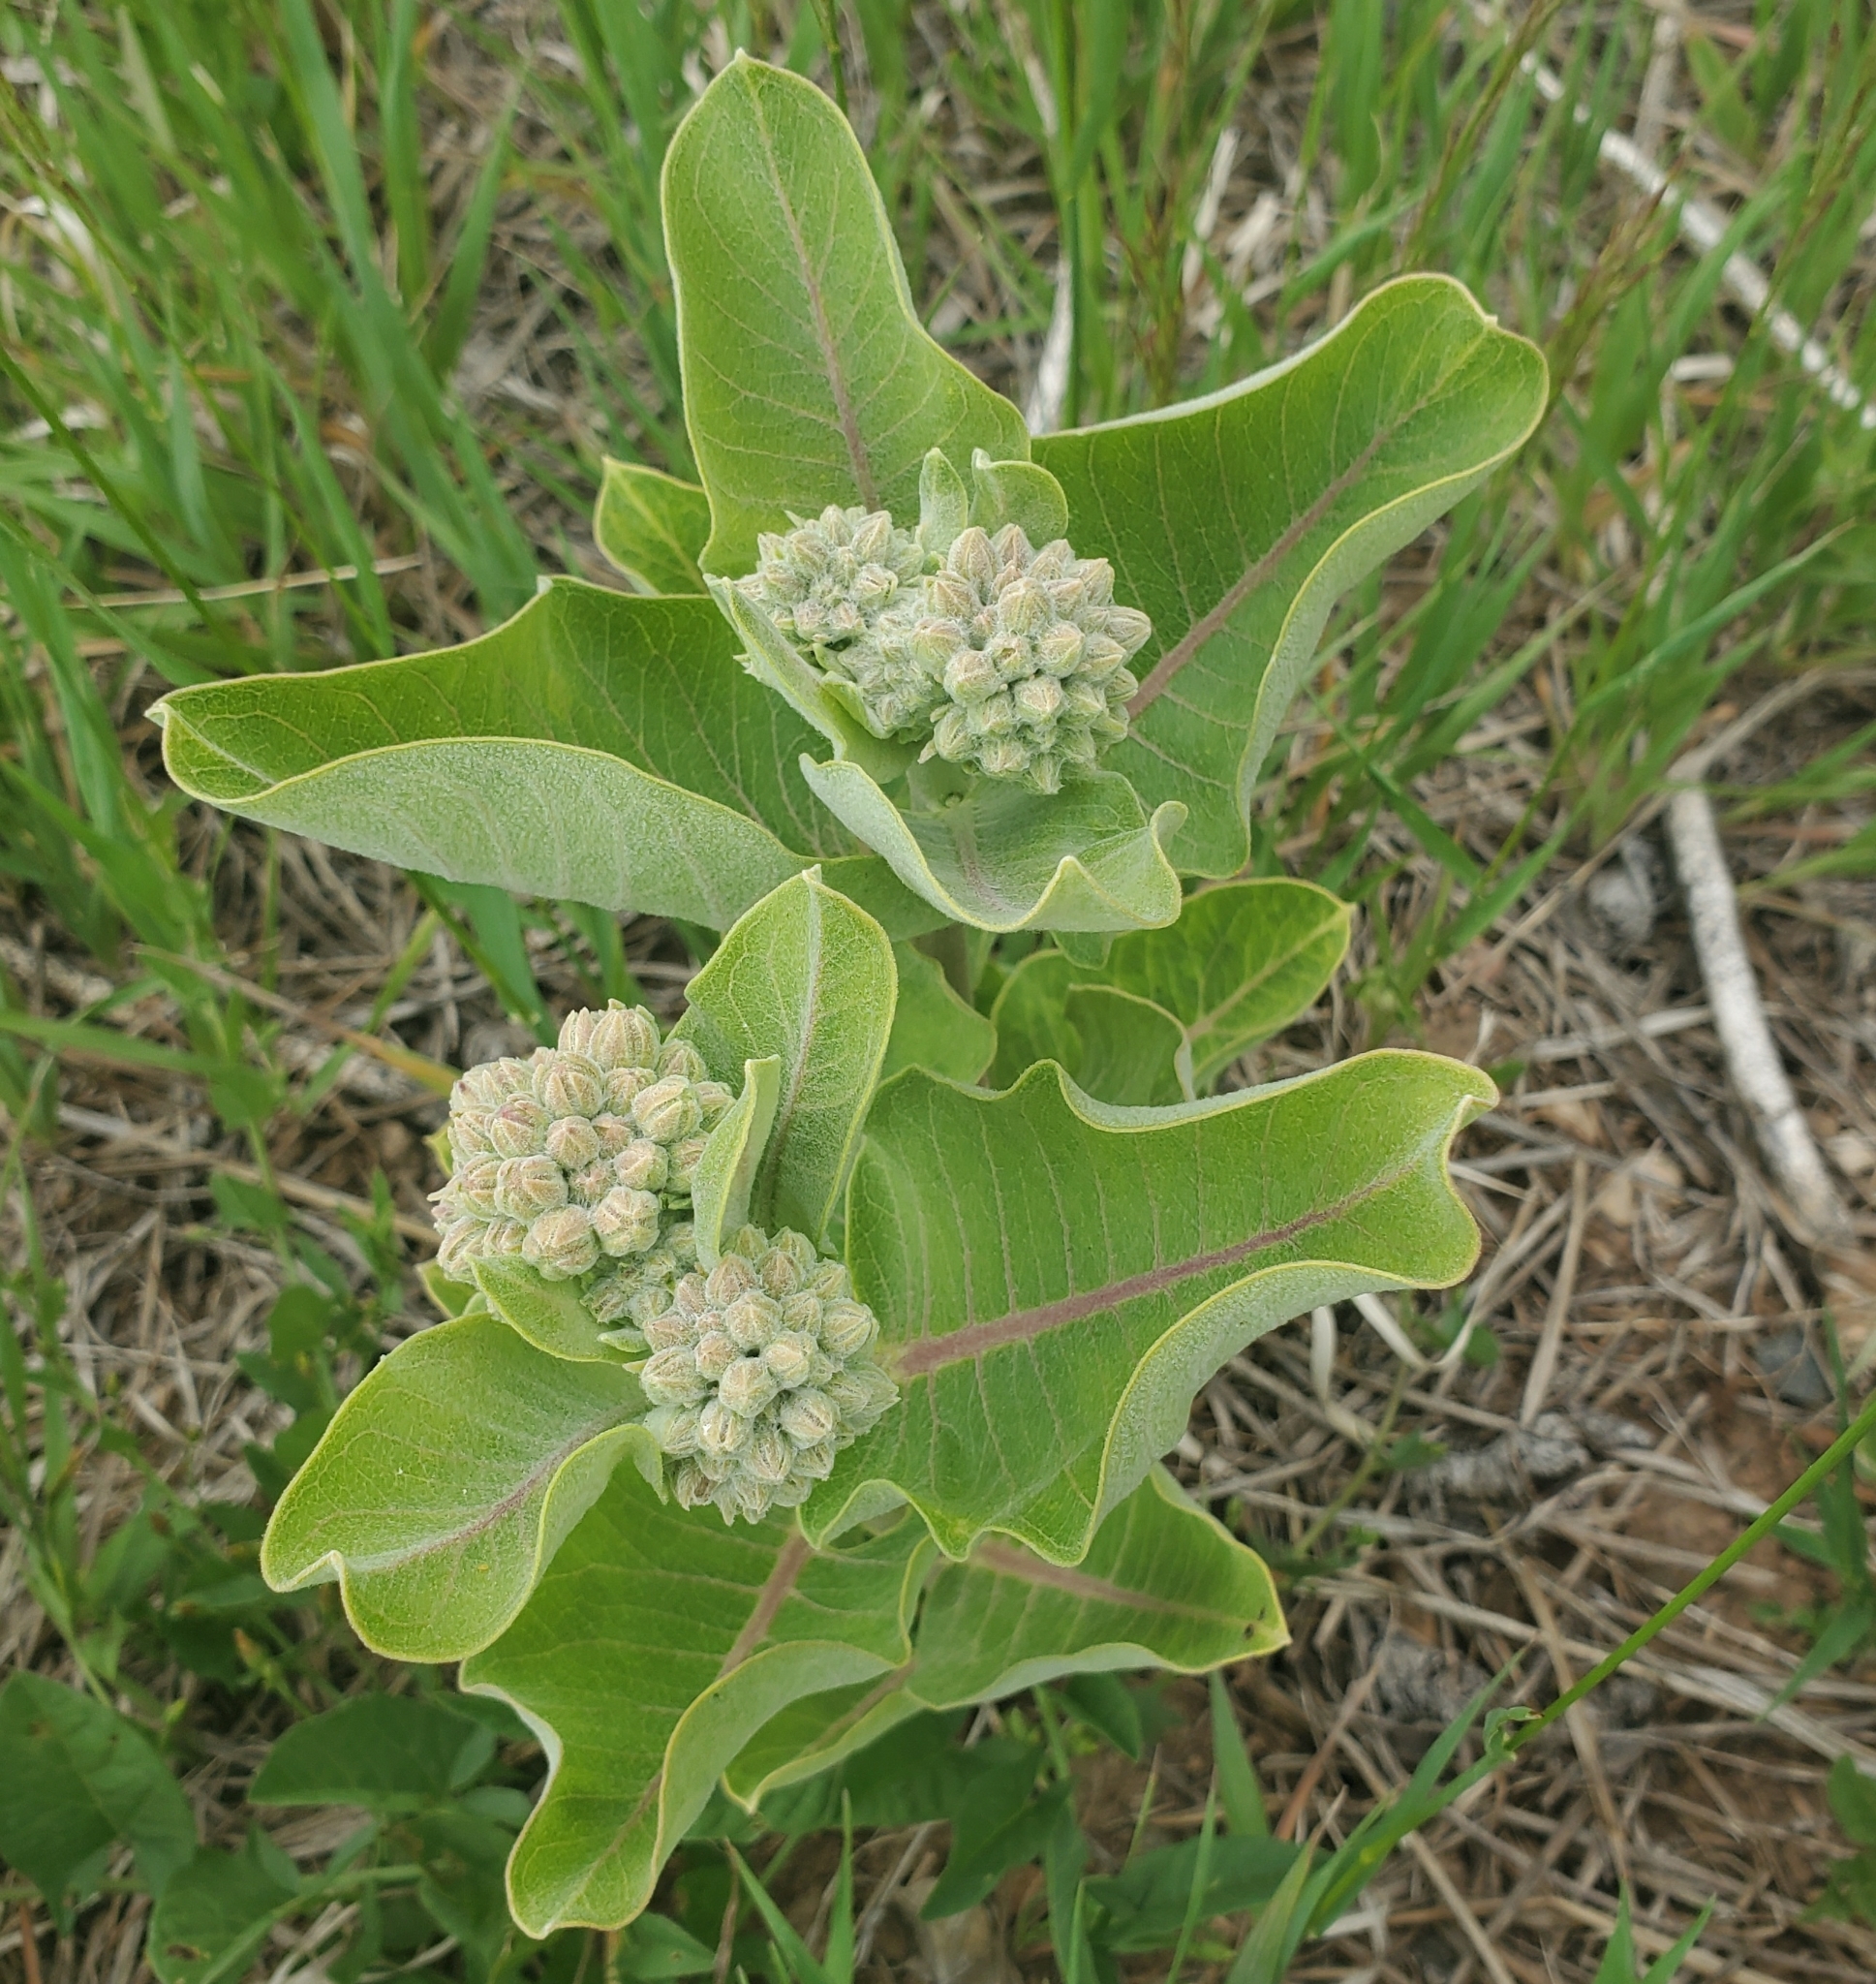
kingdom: Plantae
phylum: Tracheophyta
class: Magnoliopsida
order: Gentianales
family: Apocynaceae
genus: Asclepias
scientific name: Asclepias speciosa
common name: Showy milkweed
